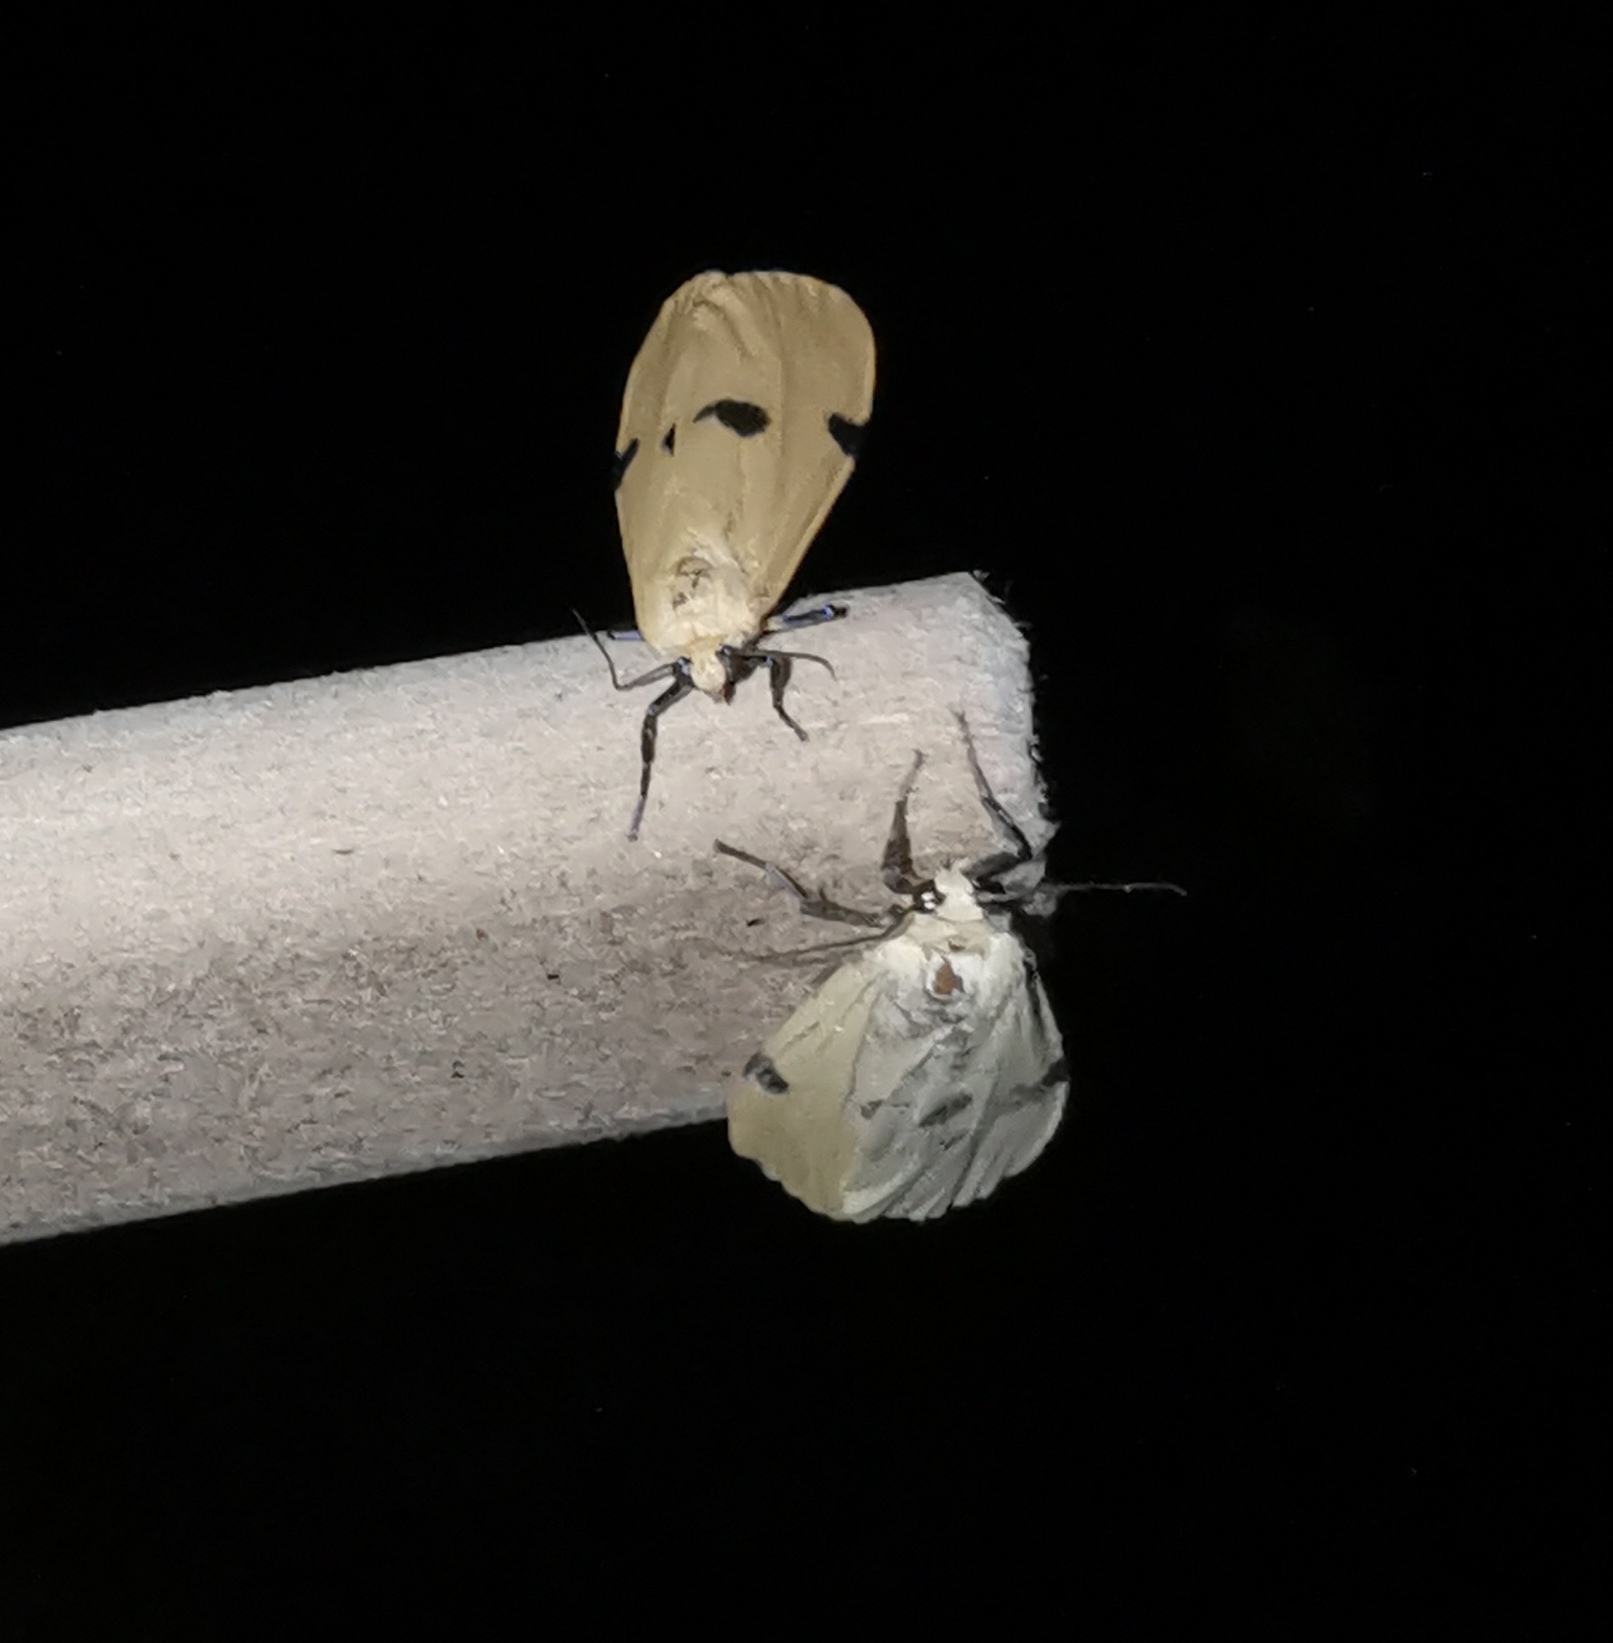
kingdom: Animalia
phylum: Arthropoda
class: Insecta
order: Lepidoptera
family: Erebidae
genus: Lithosia
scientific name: Lithosia quadra
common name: Four-spotted footman
